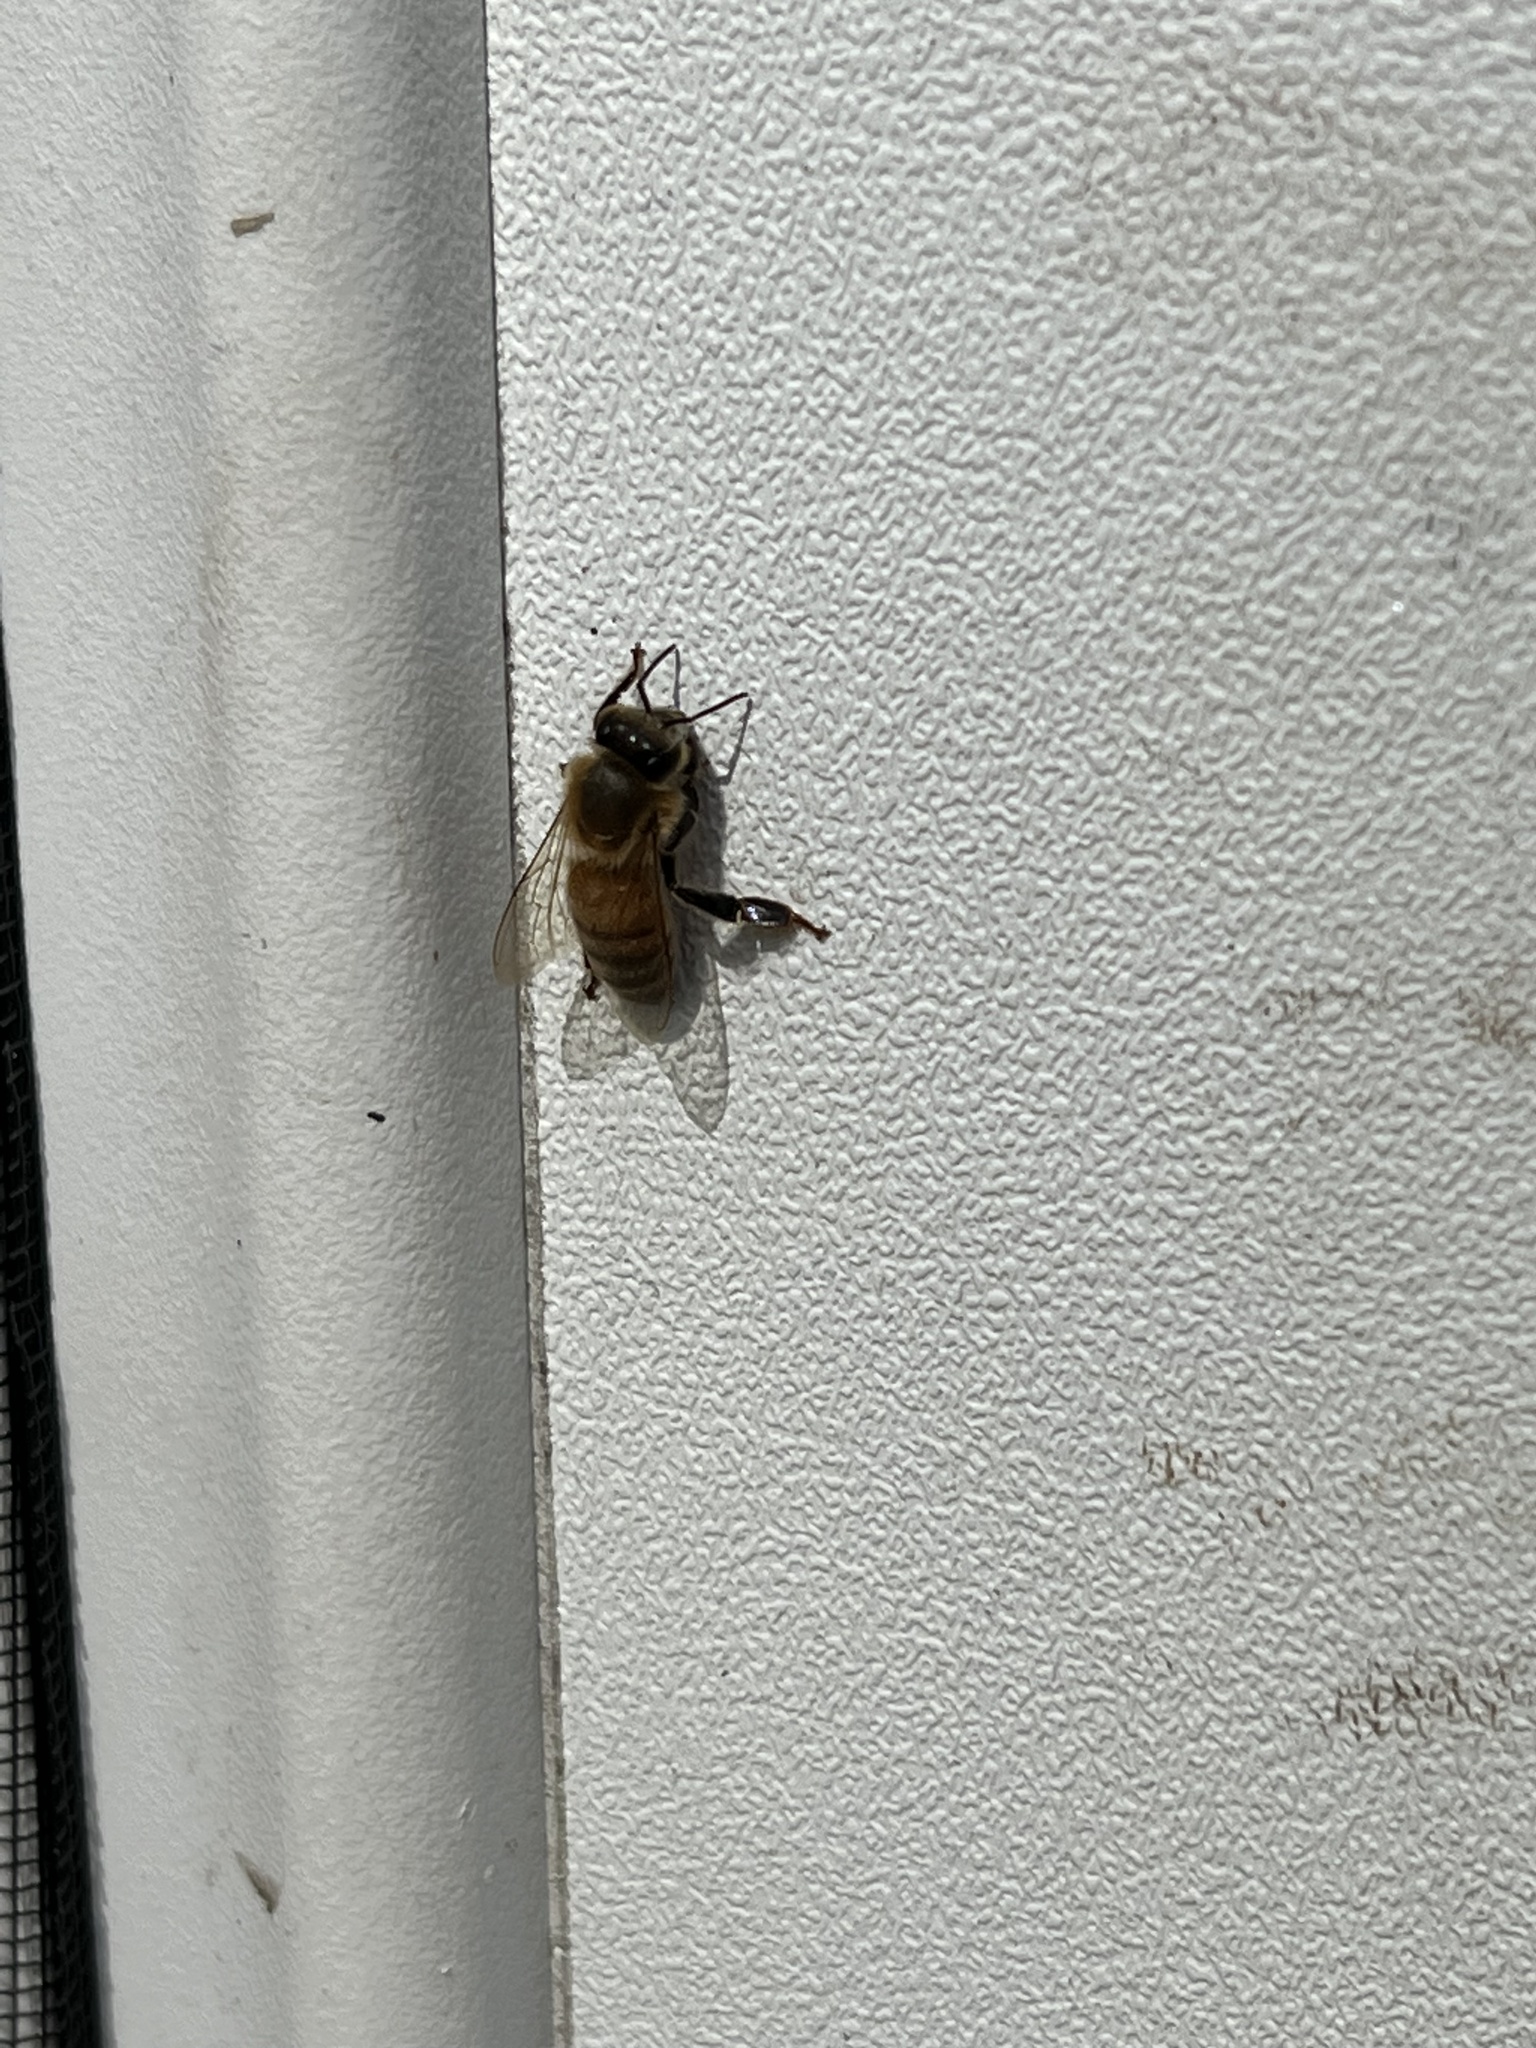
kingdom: Animalia
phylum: Arthropoda
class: Insecta
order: Hymenoptera
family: Apidae
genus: Apis
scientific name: Apis mellifera
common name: Honey bee
